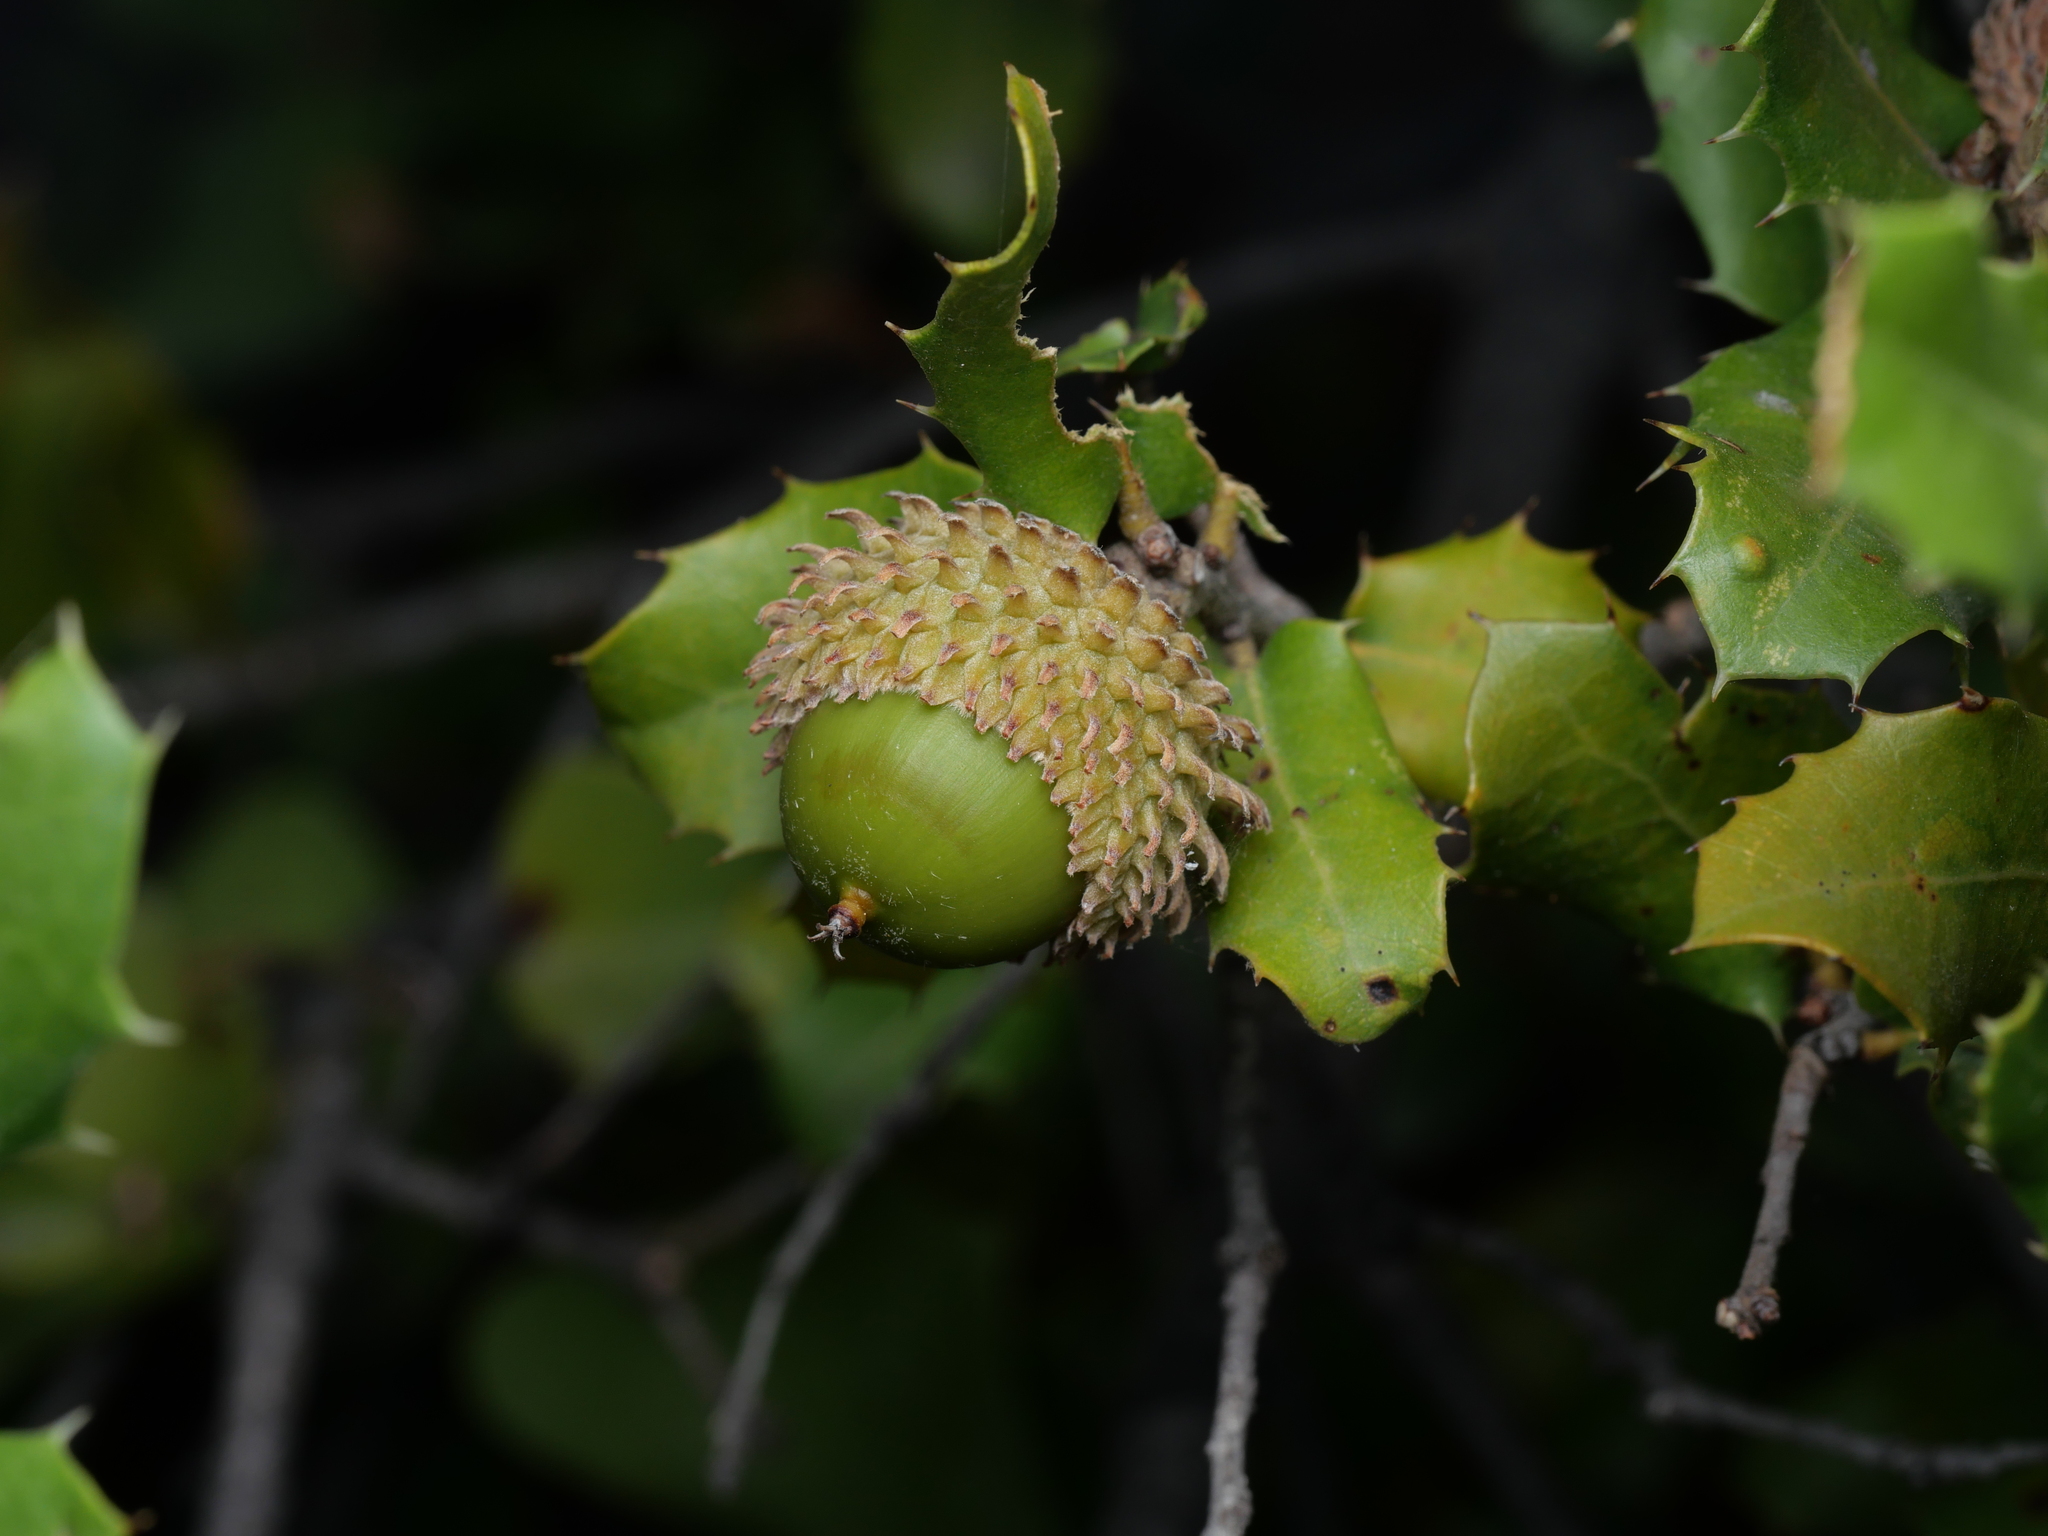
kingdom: Plantae
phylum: Tracheophyta
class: Magnoliopsida
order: Fagales
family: Fagaceae
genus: Quercus
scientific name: Quercus coccifera
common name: Kermes oak
